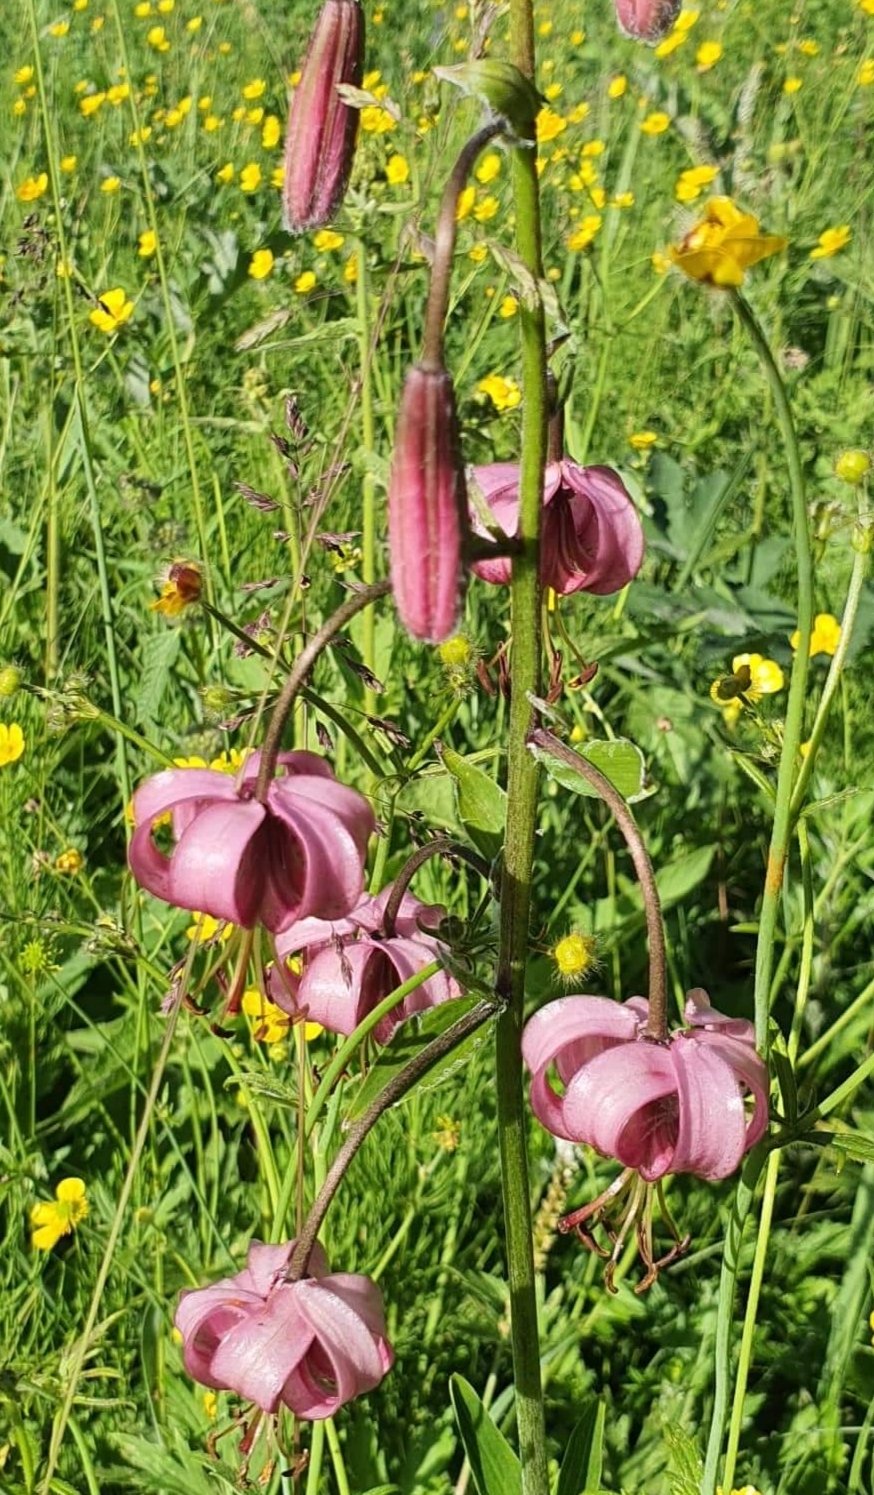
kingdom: Plantae
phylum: Tracheophyta
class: Liliopsida
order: Liliales
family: Liliaceae
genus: Lilium
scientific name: Lilium martagon
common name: Martagon lily
